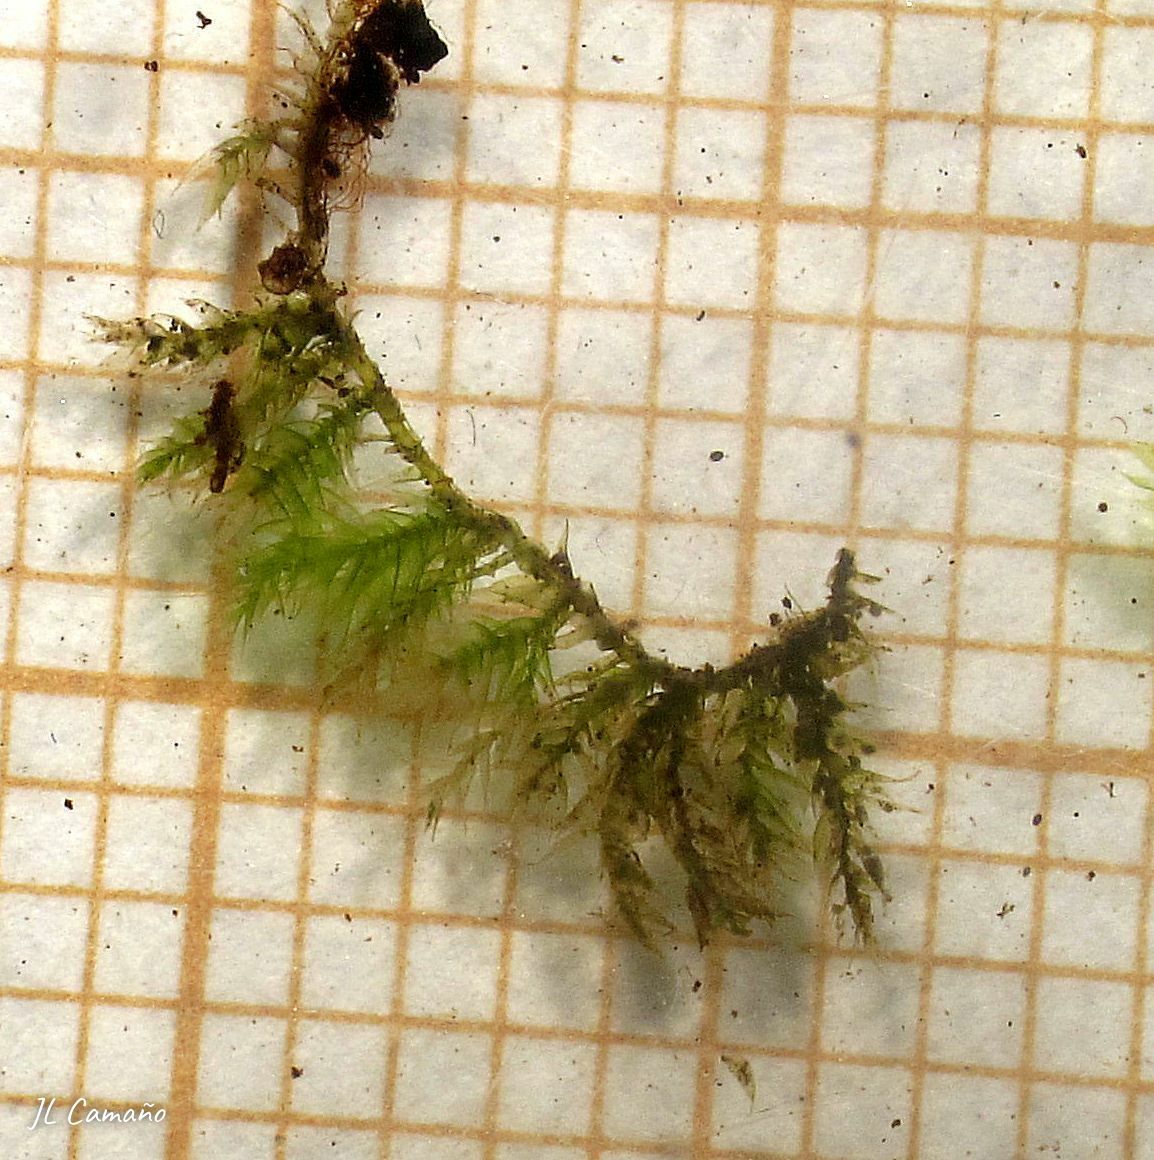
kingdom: Plantae
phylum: Bryophyta
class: Bryopsida
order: Hypnales
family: Brachytheciaceae
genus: Rhynchostegium
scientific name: Rhynchostegium confertum
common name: Clustered feather-moss
